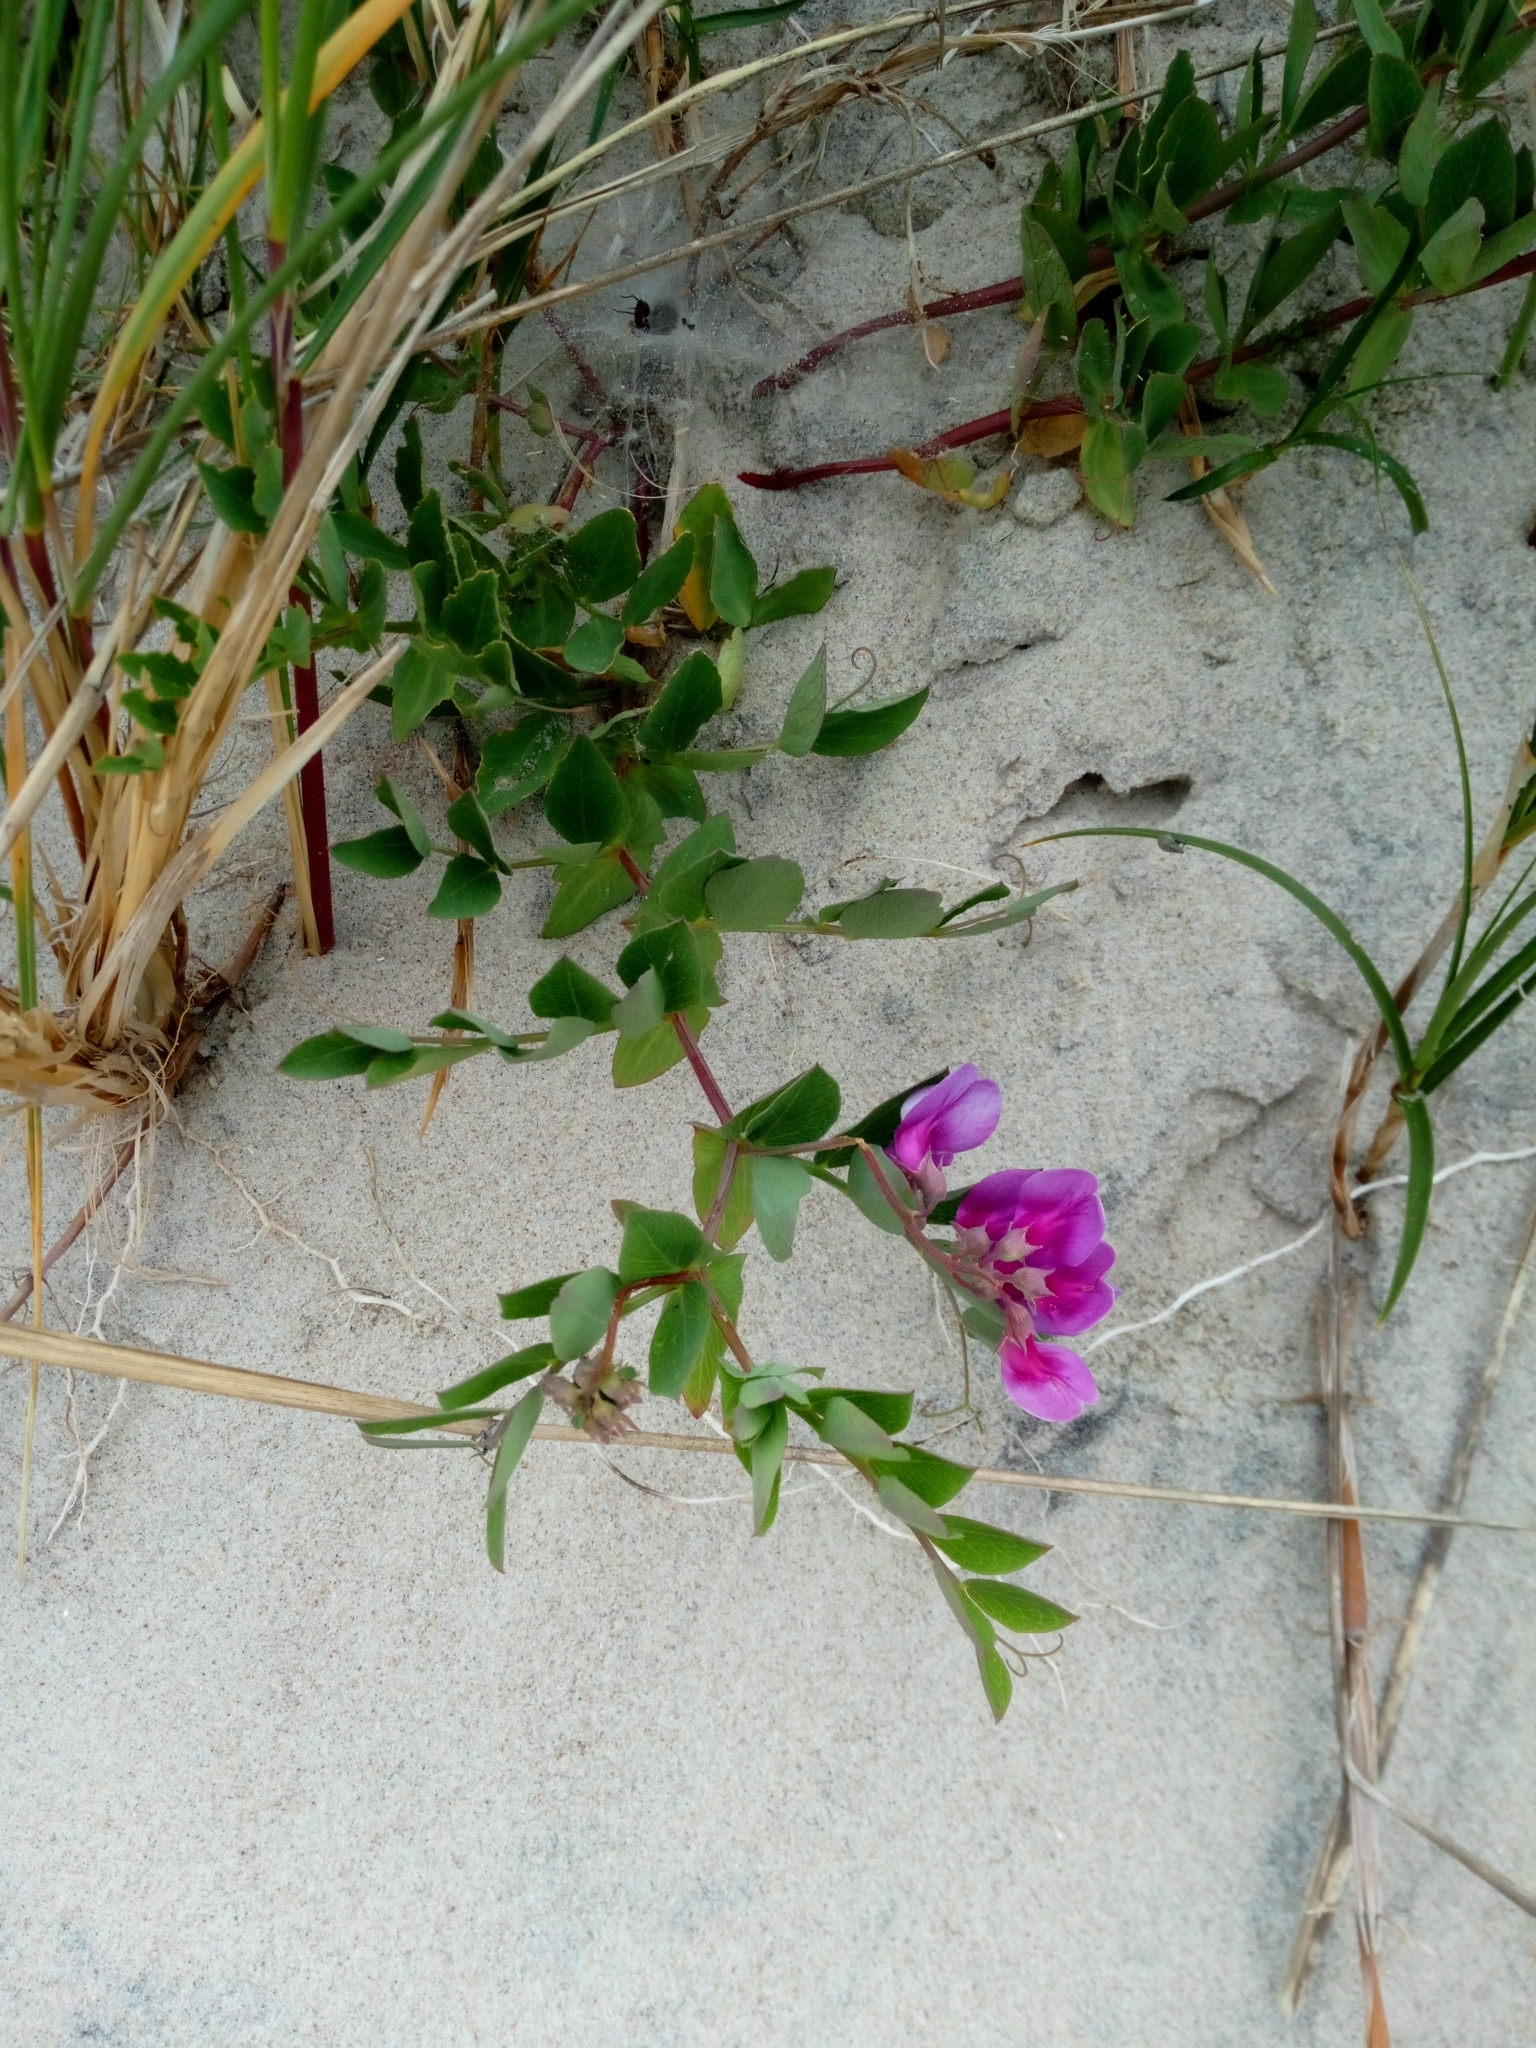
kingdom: Plantae
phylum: Tracheophyta
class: Magnoliopsida
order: Fabales
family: Fabaceae
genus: Lathyrus
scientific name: Lathyrus japonicus
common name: Sea pea
